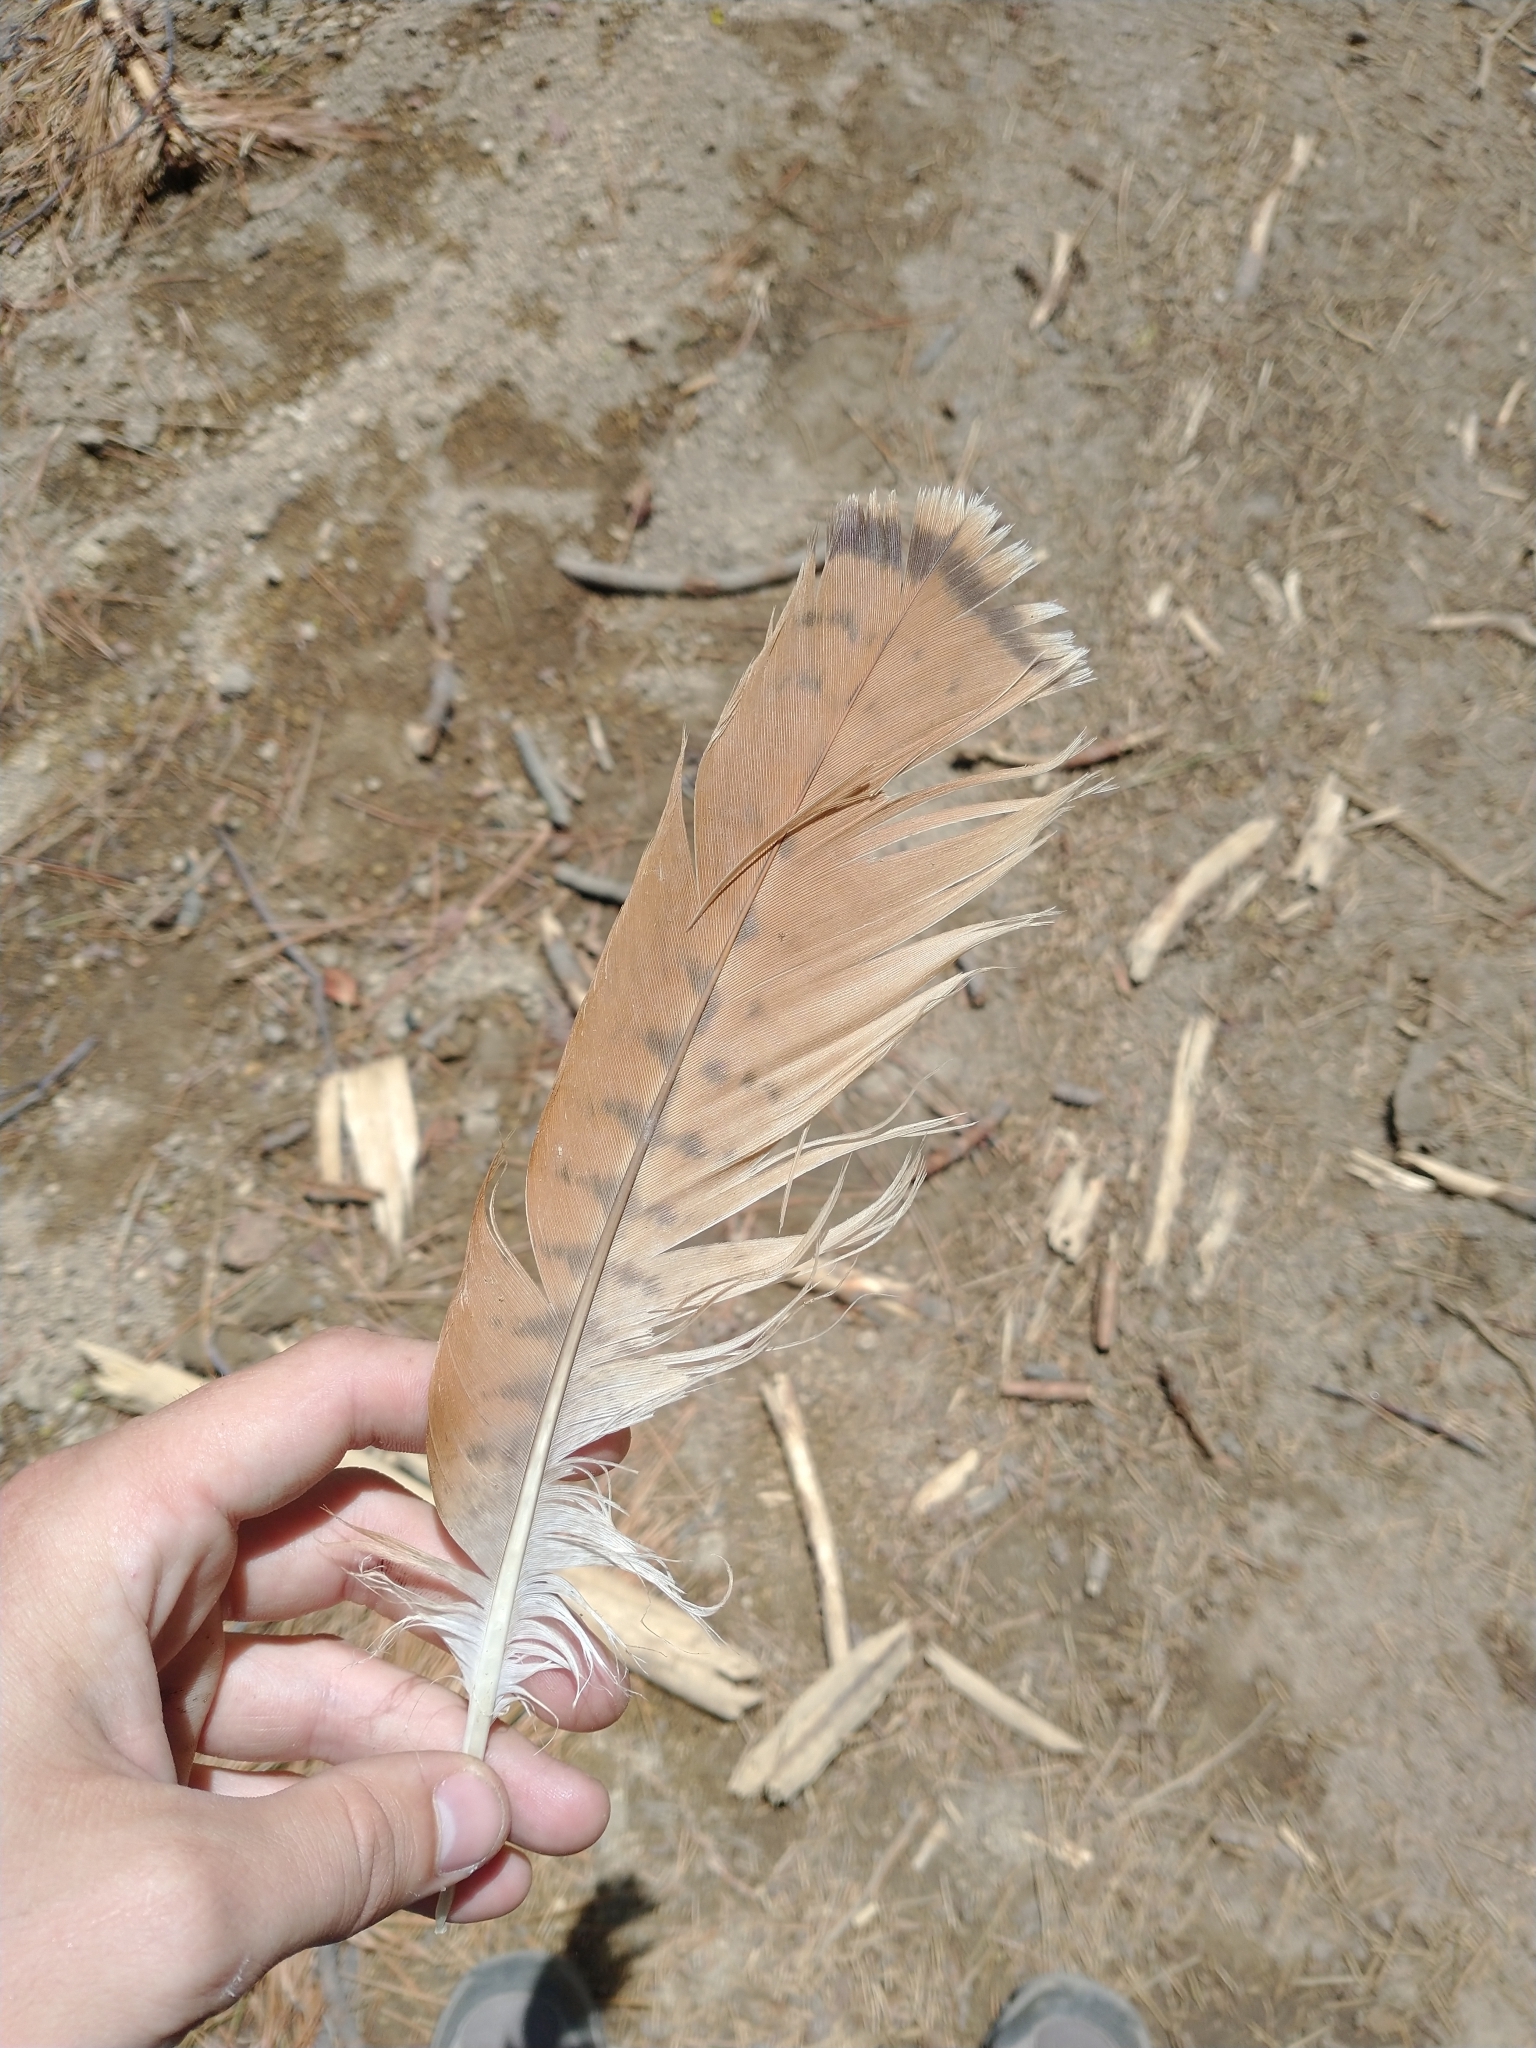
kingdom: Animalia
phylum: Chordata
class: Aves
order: Accipitriformes
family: Accipitridae
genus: Buteo
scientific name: Buteo jamaicensis
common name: Red-tailed hawk
